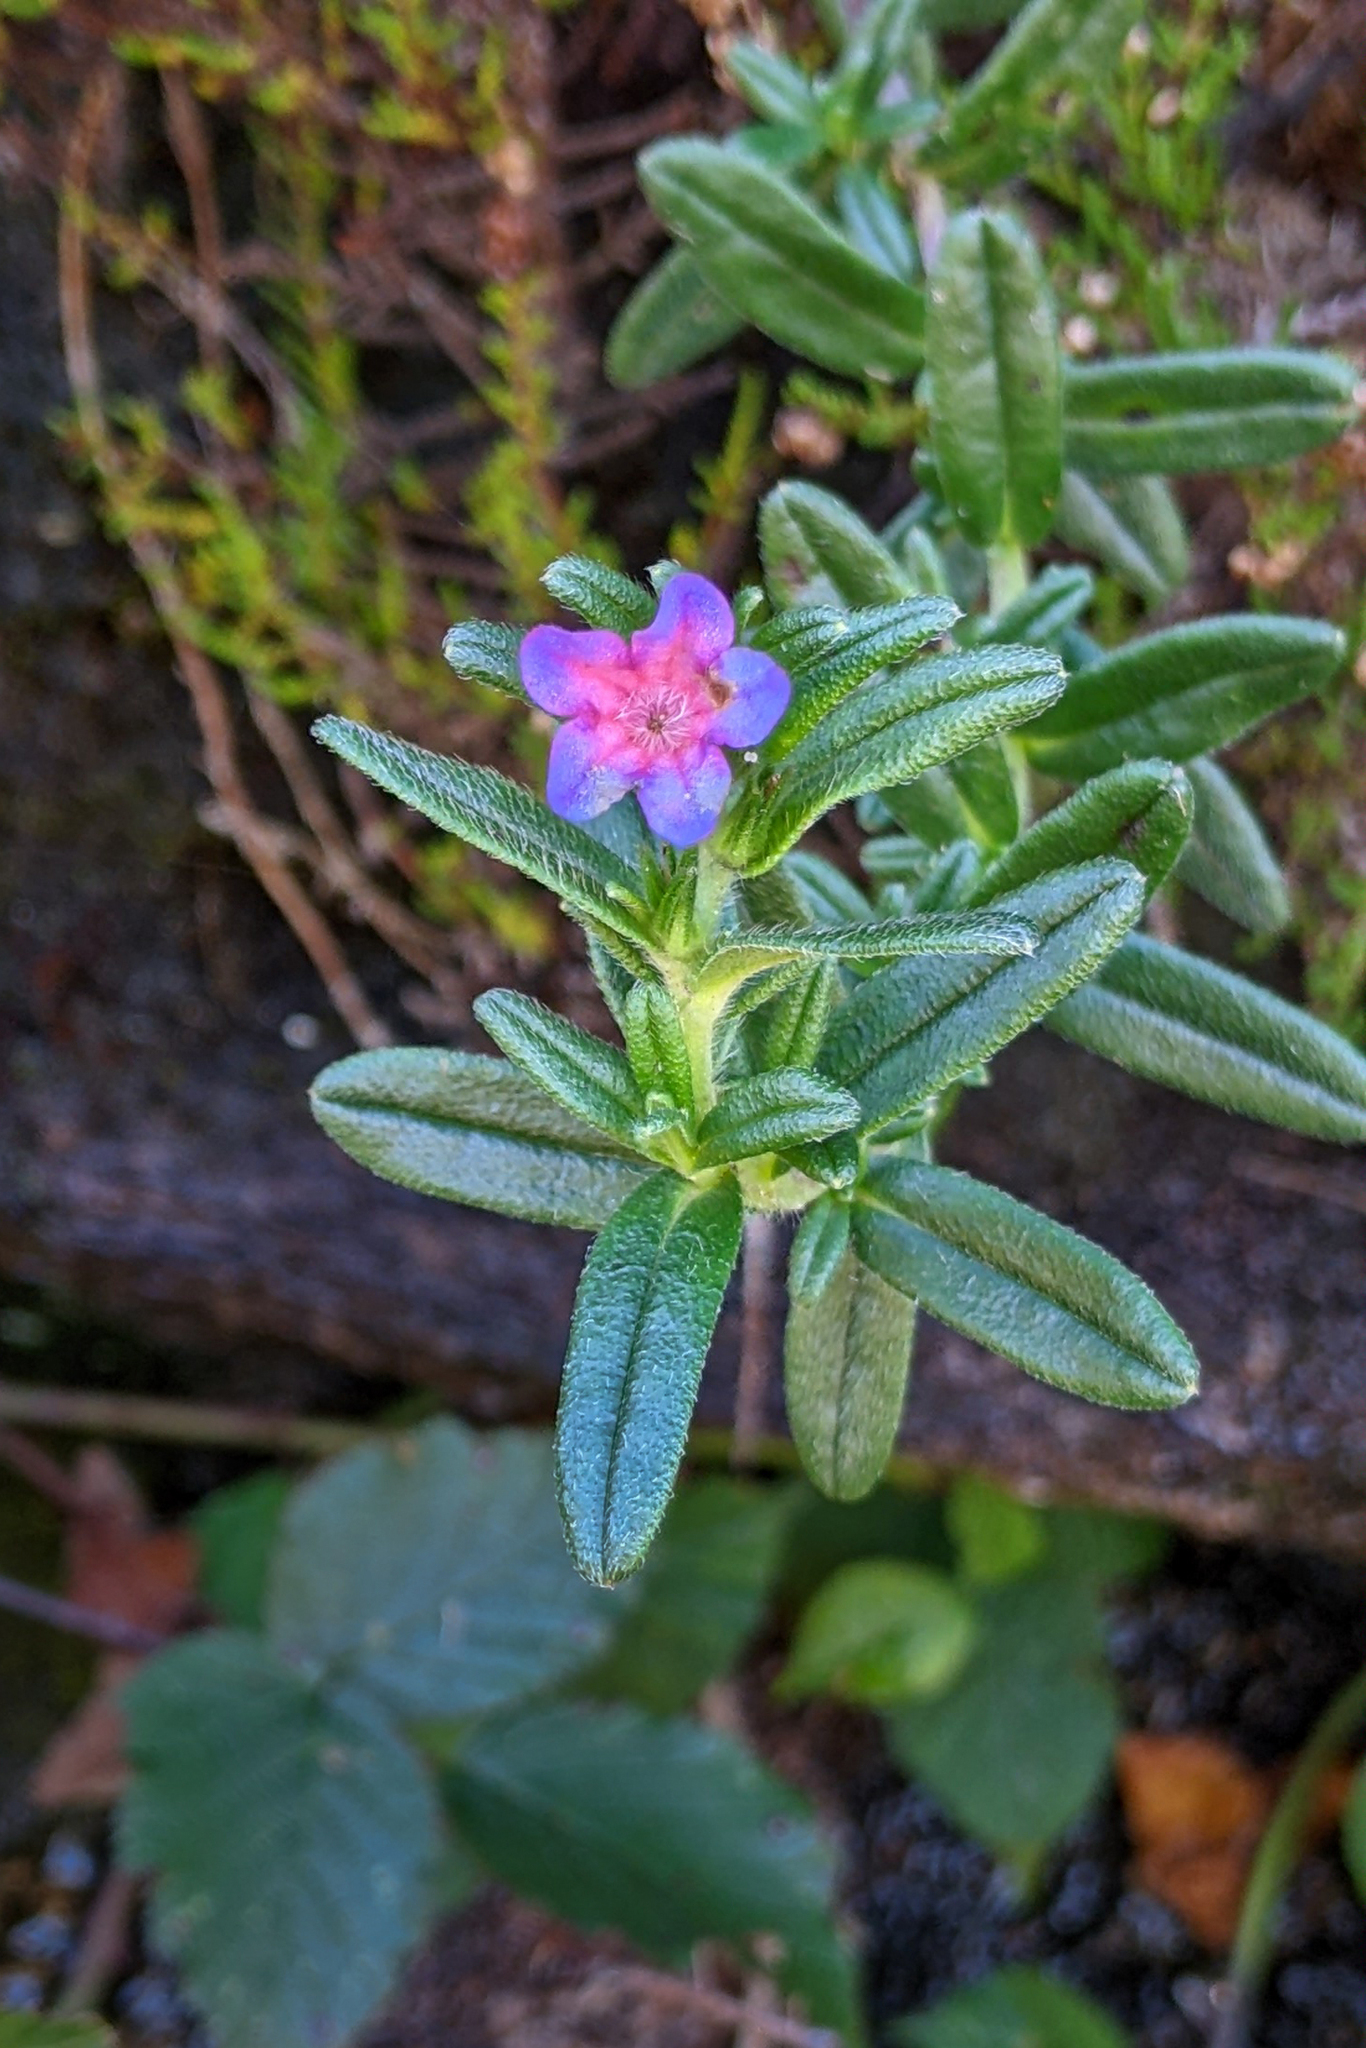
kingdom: Plantae
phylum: Tracheophyta
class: Magnoliopsida
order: Boraginales
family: Boraginaceae
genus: Glandora
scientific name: Glandora prostrata
